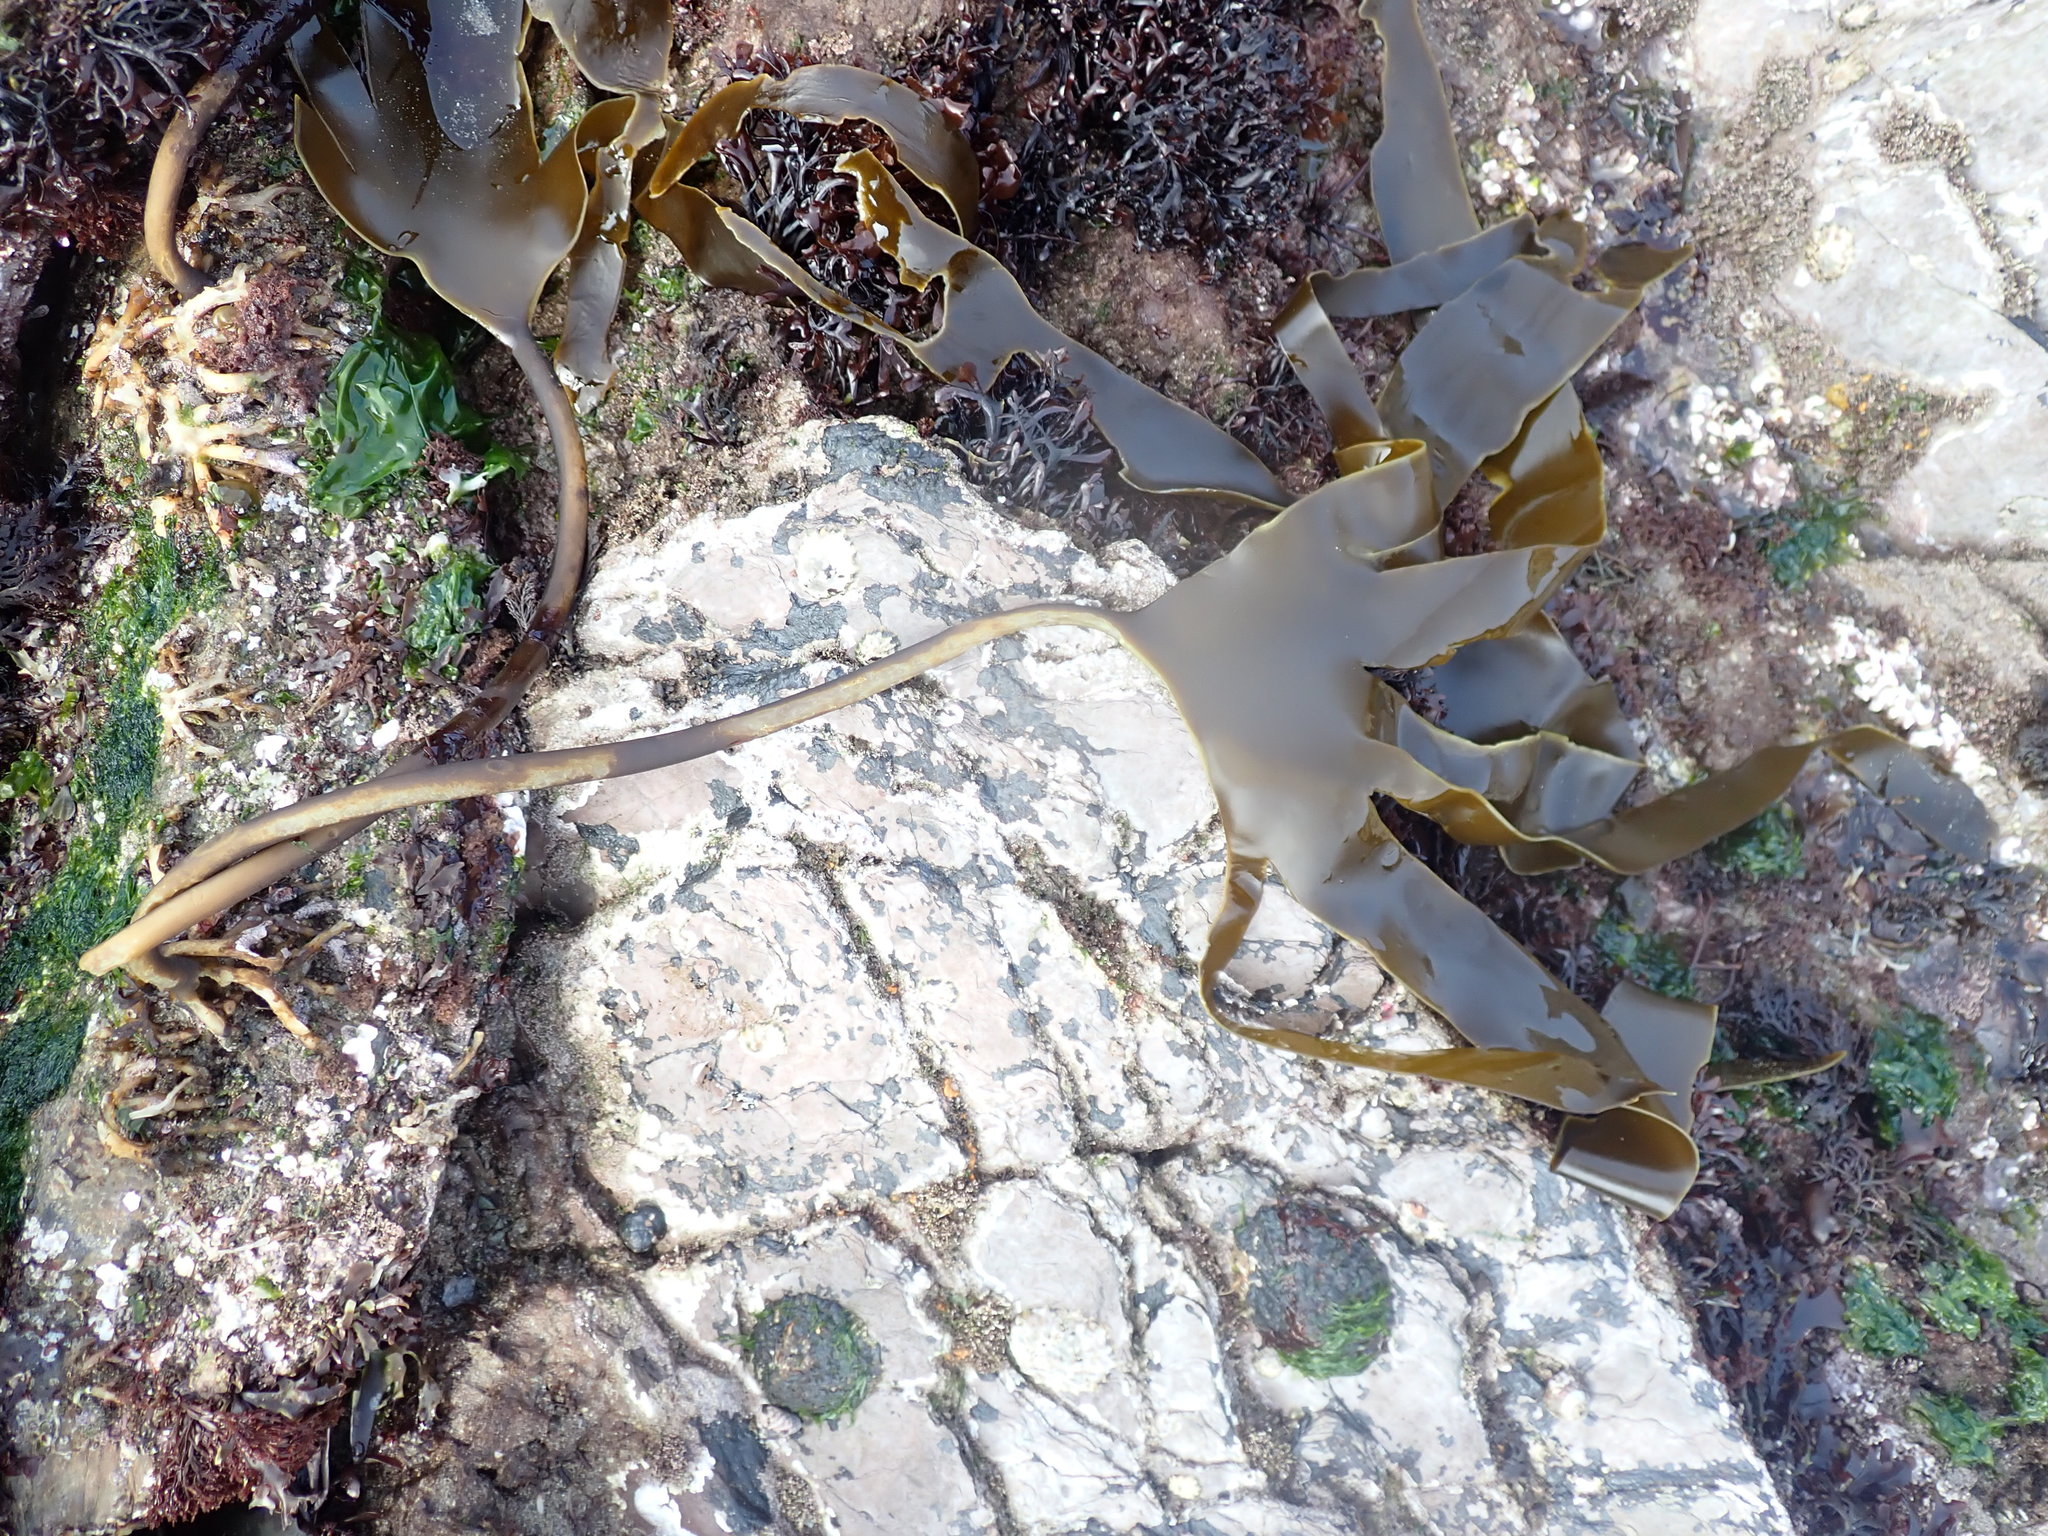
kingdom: Chromista
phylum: Ochrophyta
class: Phaeophyceae
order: Laminariales
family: Laminariaceae
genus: Laminaria
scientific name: Laminaria digitata
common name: Oarweed
